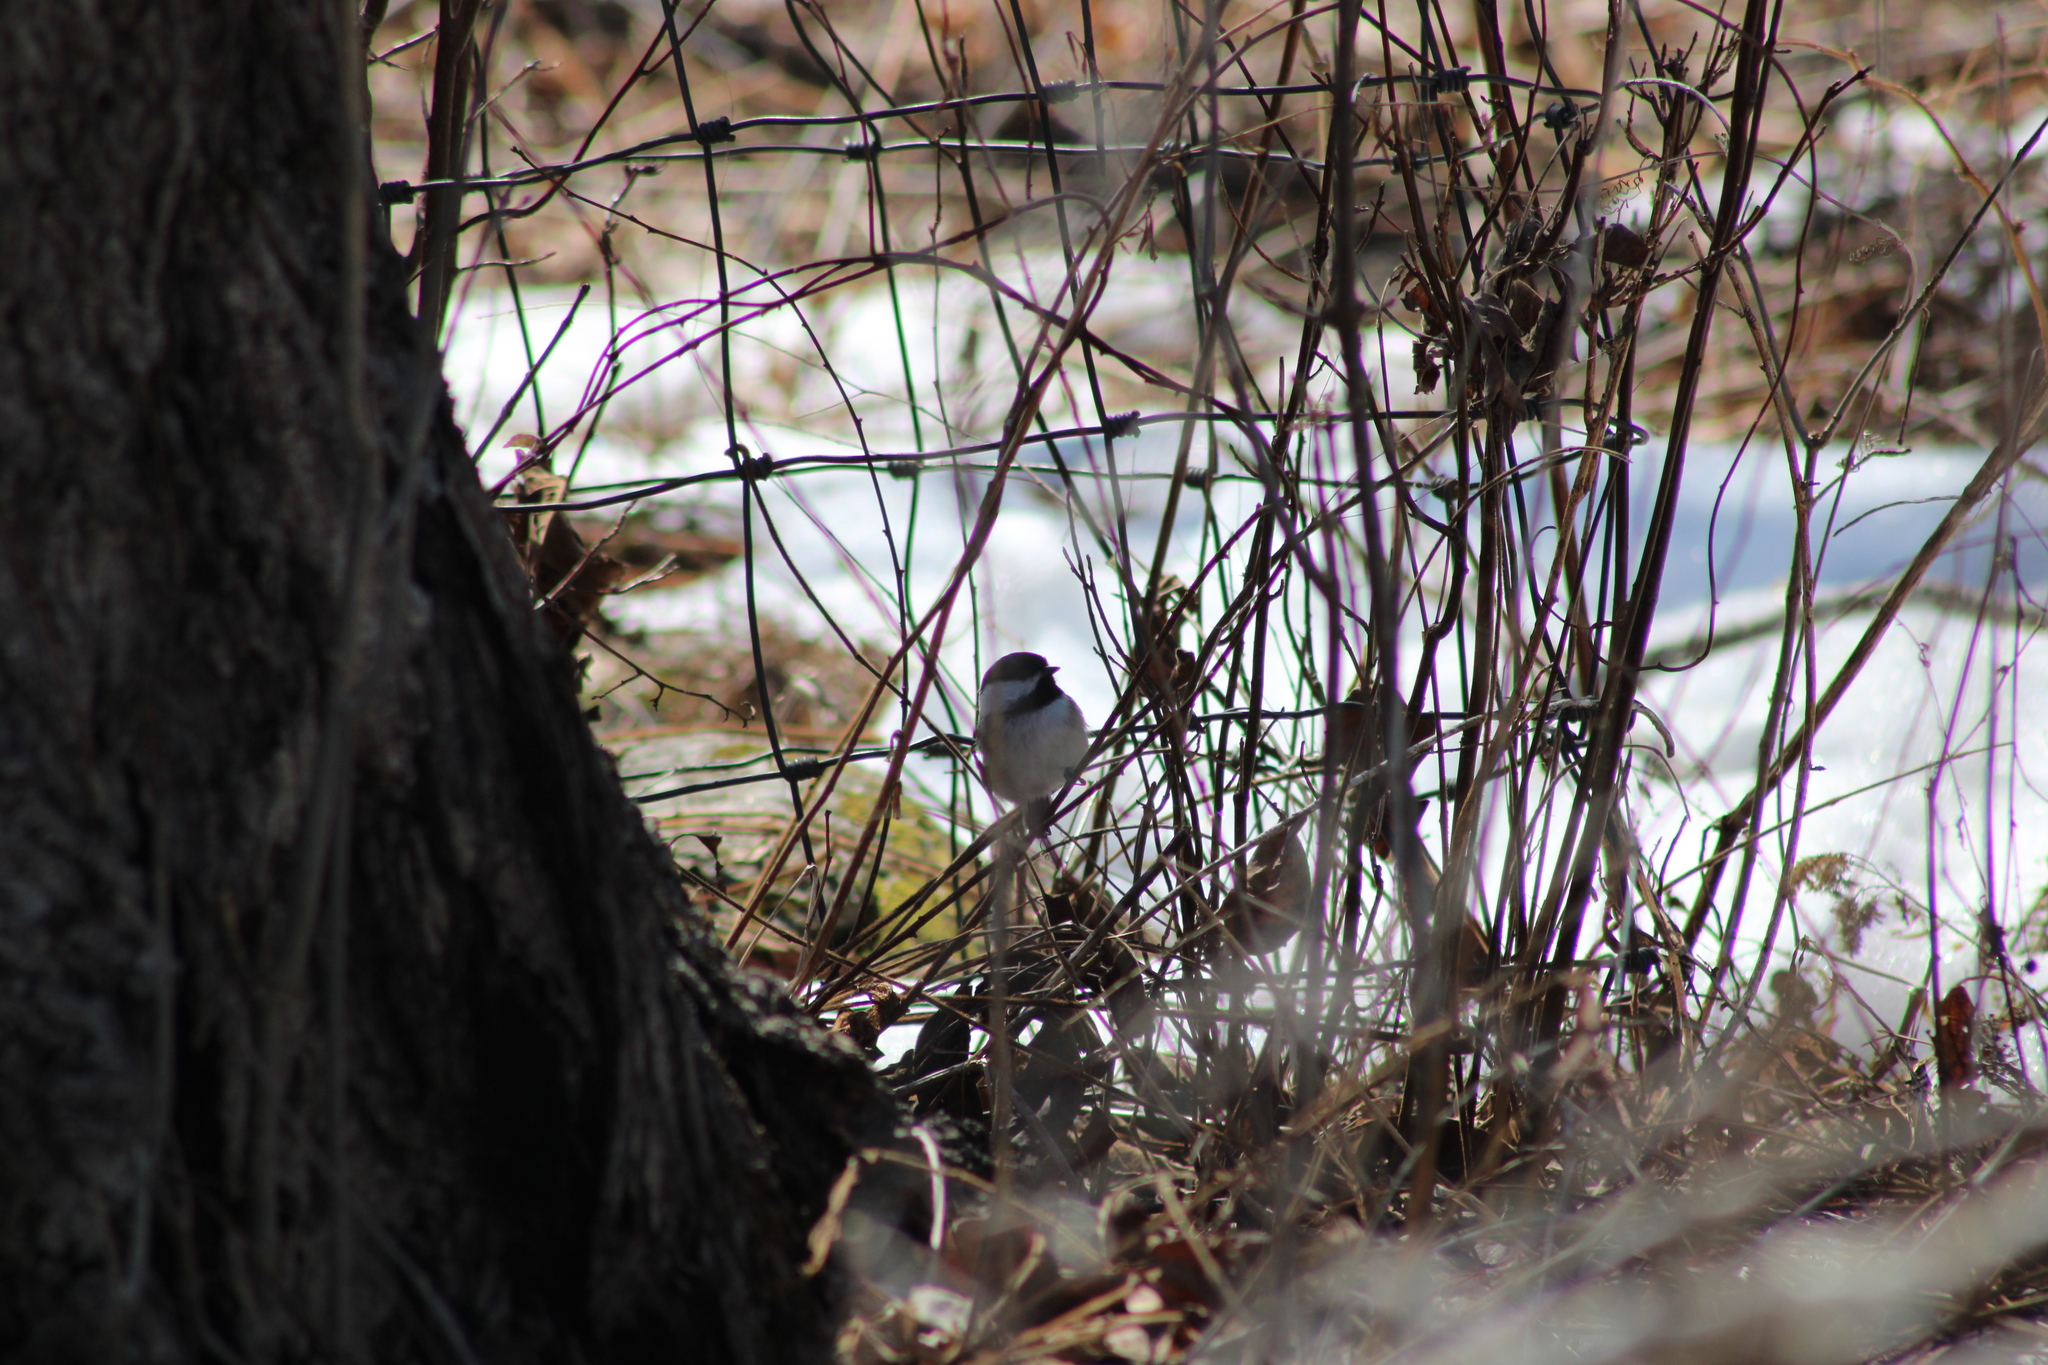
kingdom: Animalia
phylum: Chordata
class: Aves
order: Passeriformes
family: Paridae
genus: Poecile
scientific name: Poecile atricapillus
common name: Black-capped chickadee
